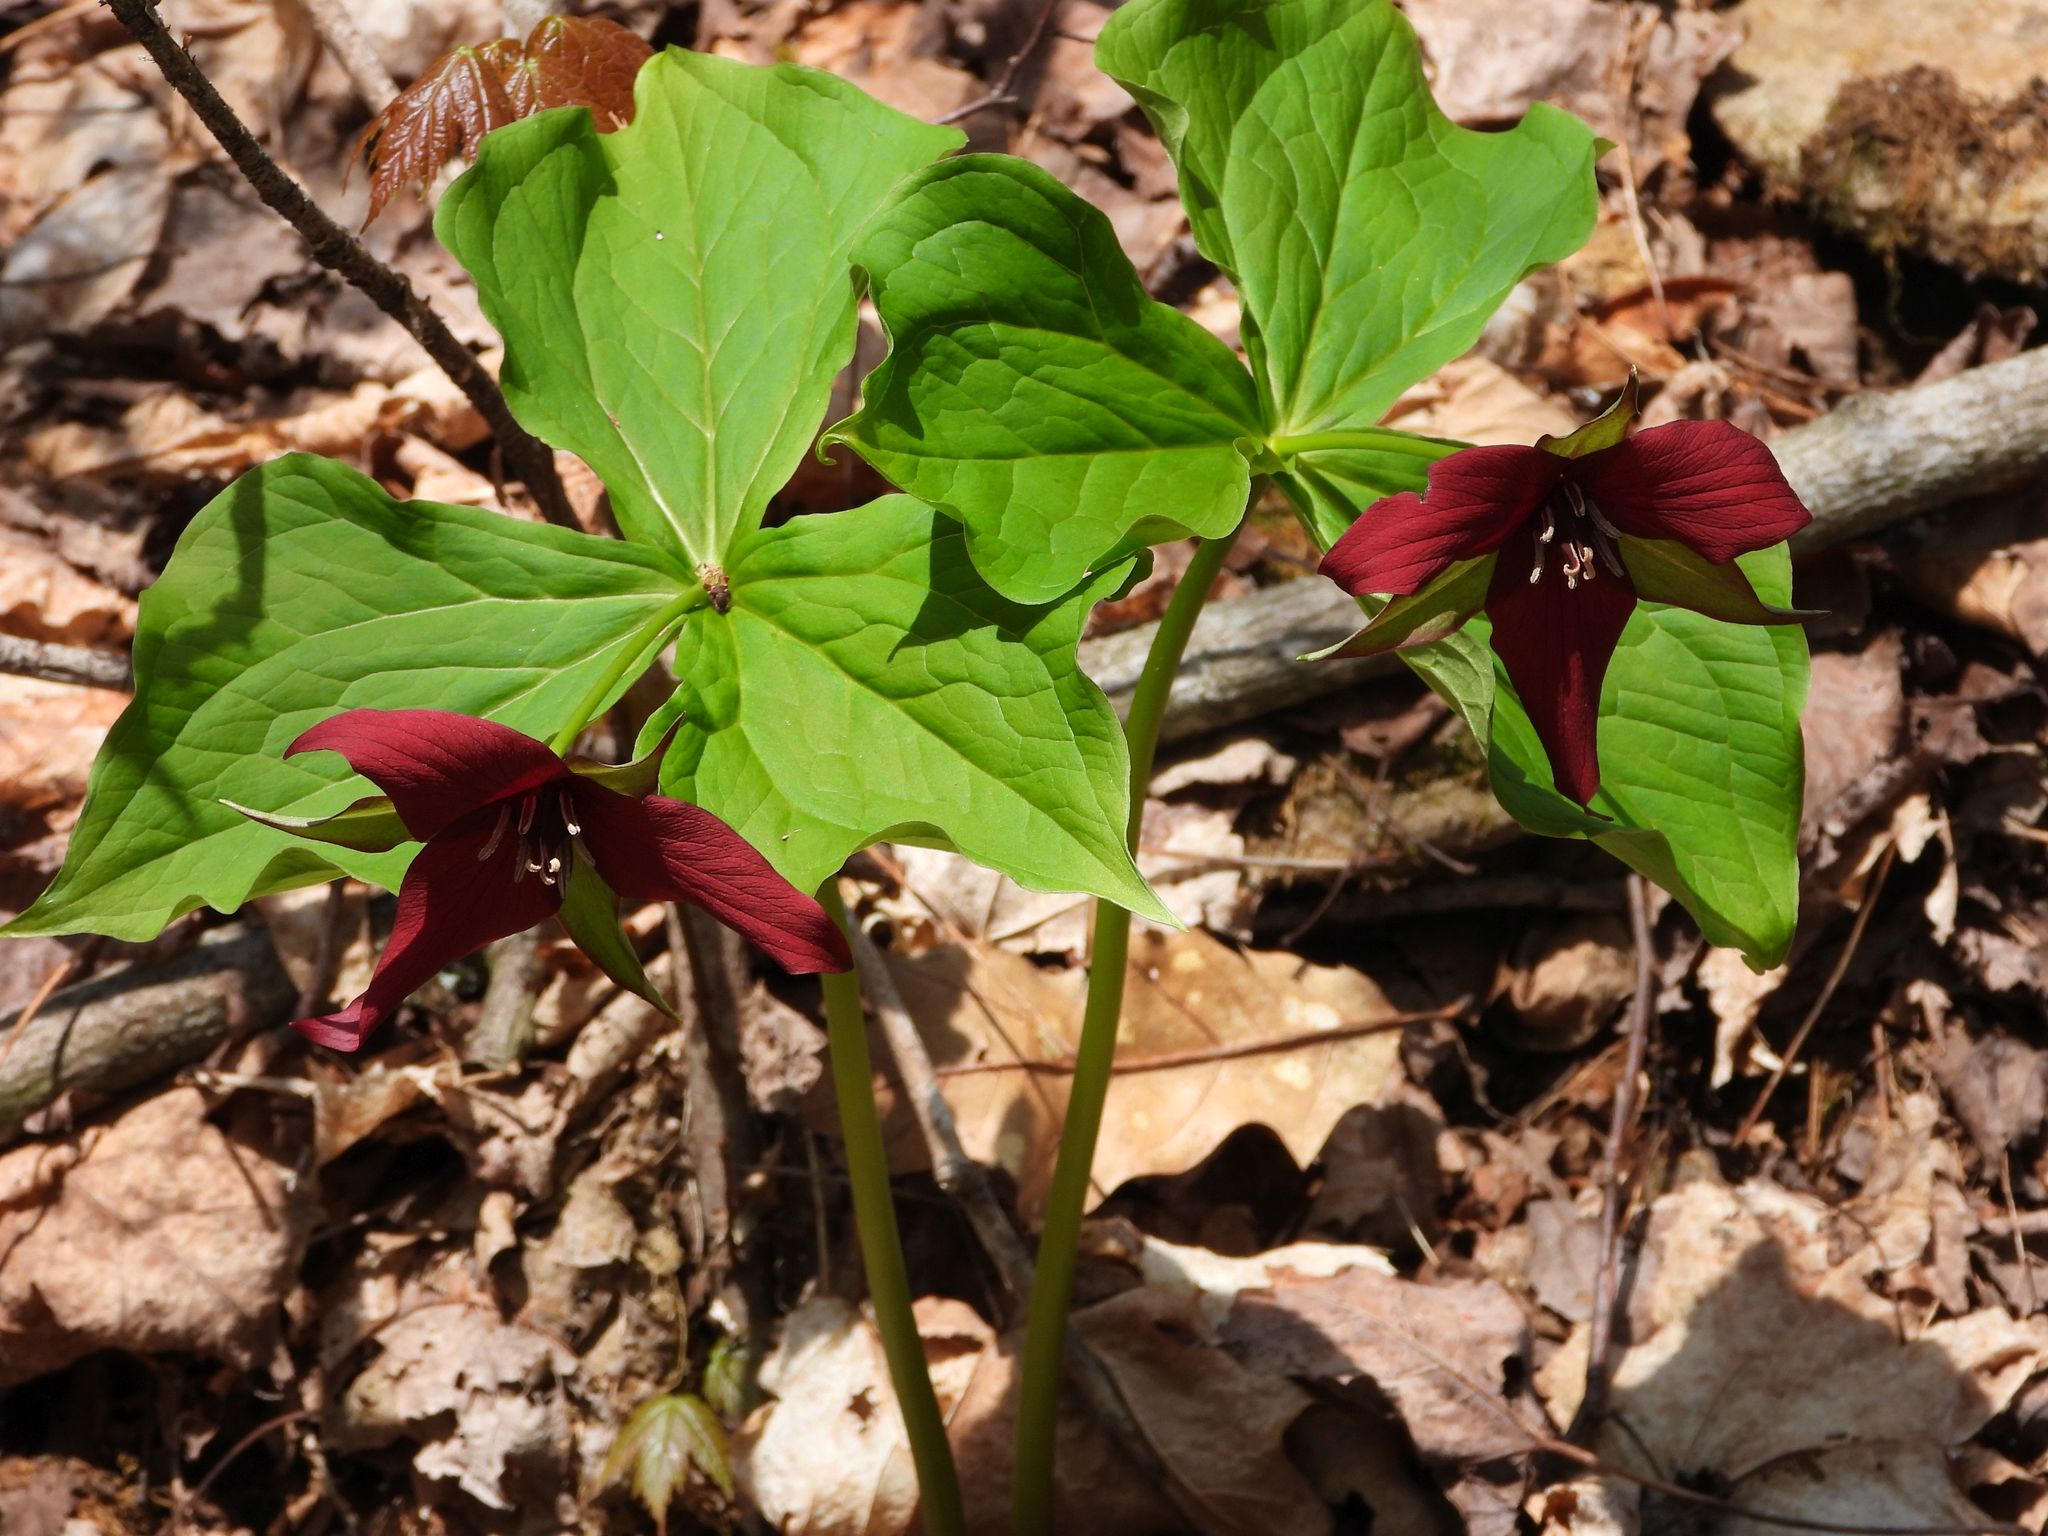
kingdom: Plantae
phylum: Tracheophyta
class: Liliopsida
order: Liliales
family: Melanthiaceae
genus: Trillium
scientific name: Trillium erectum
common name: Purple trillium
